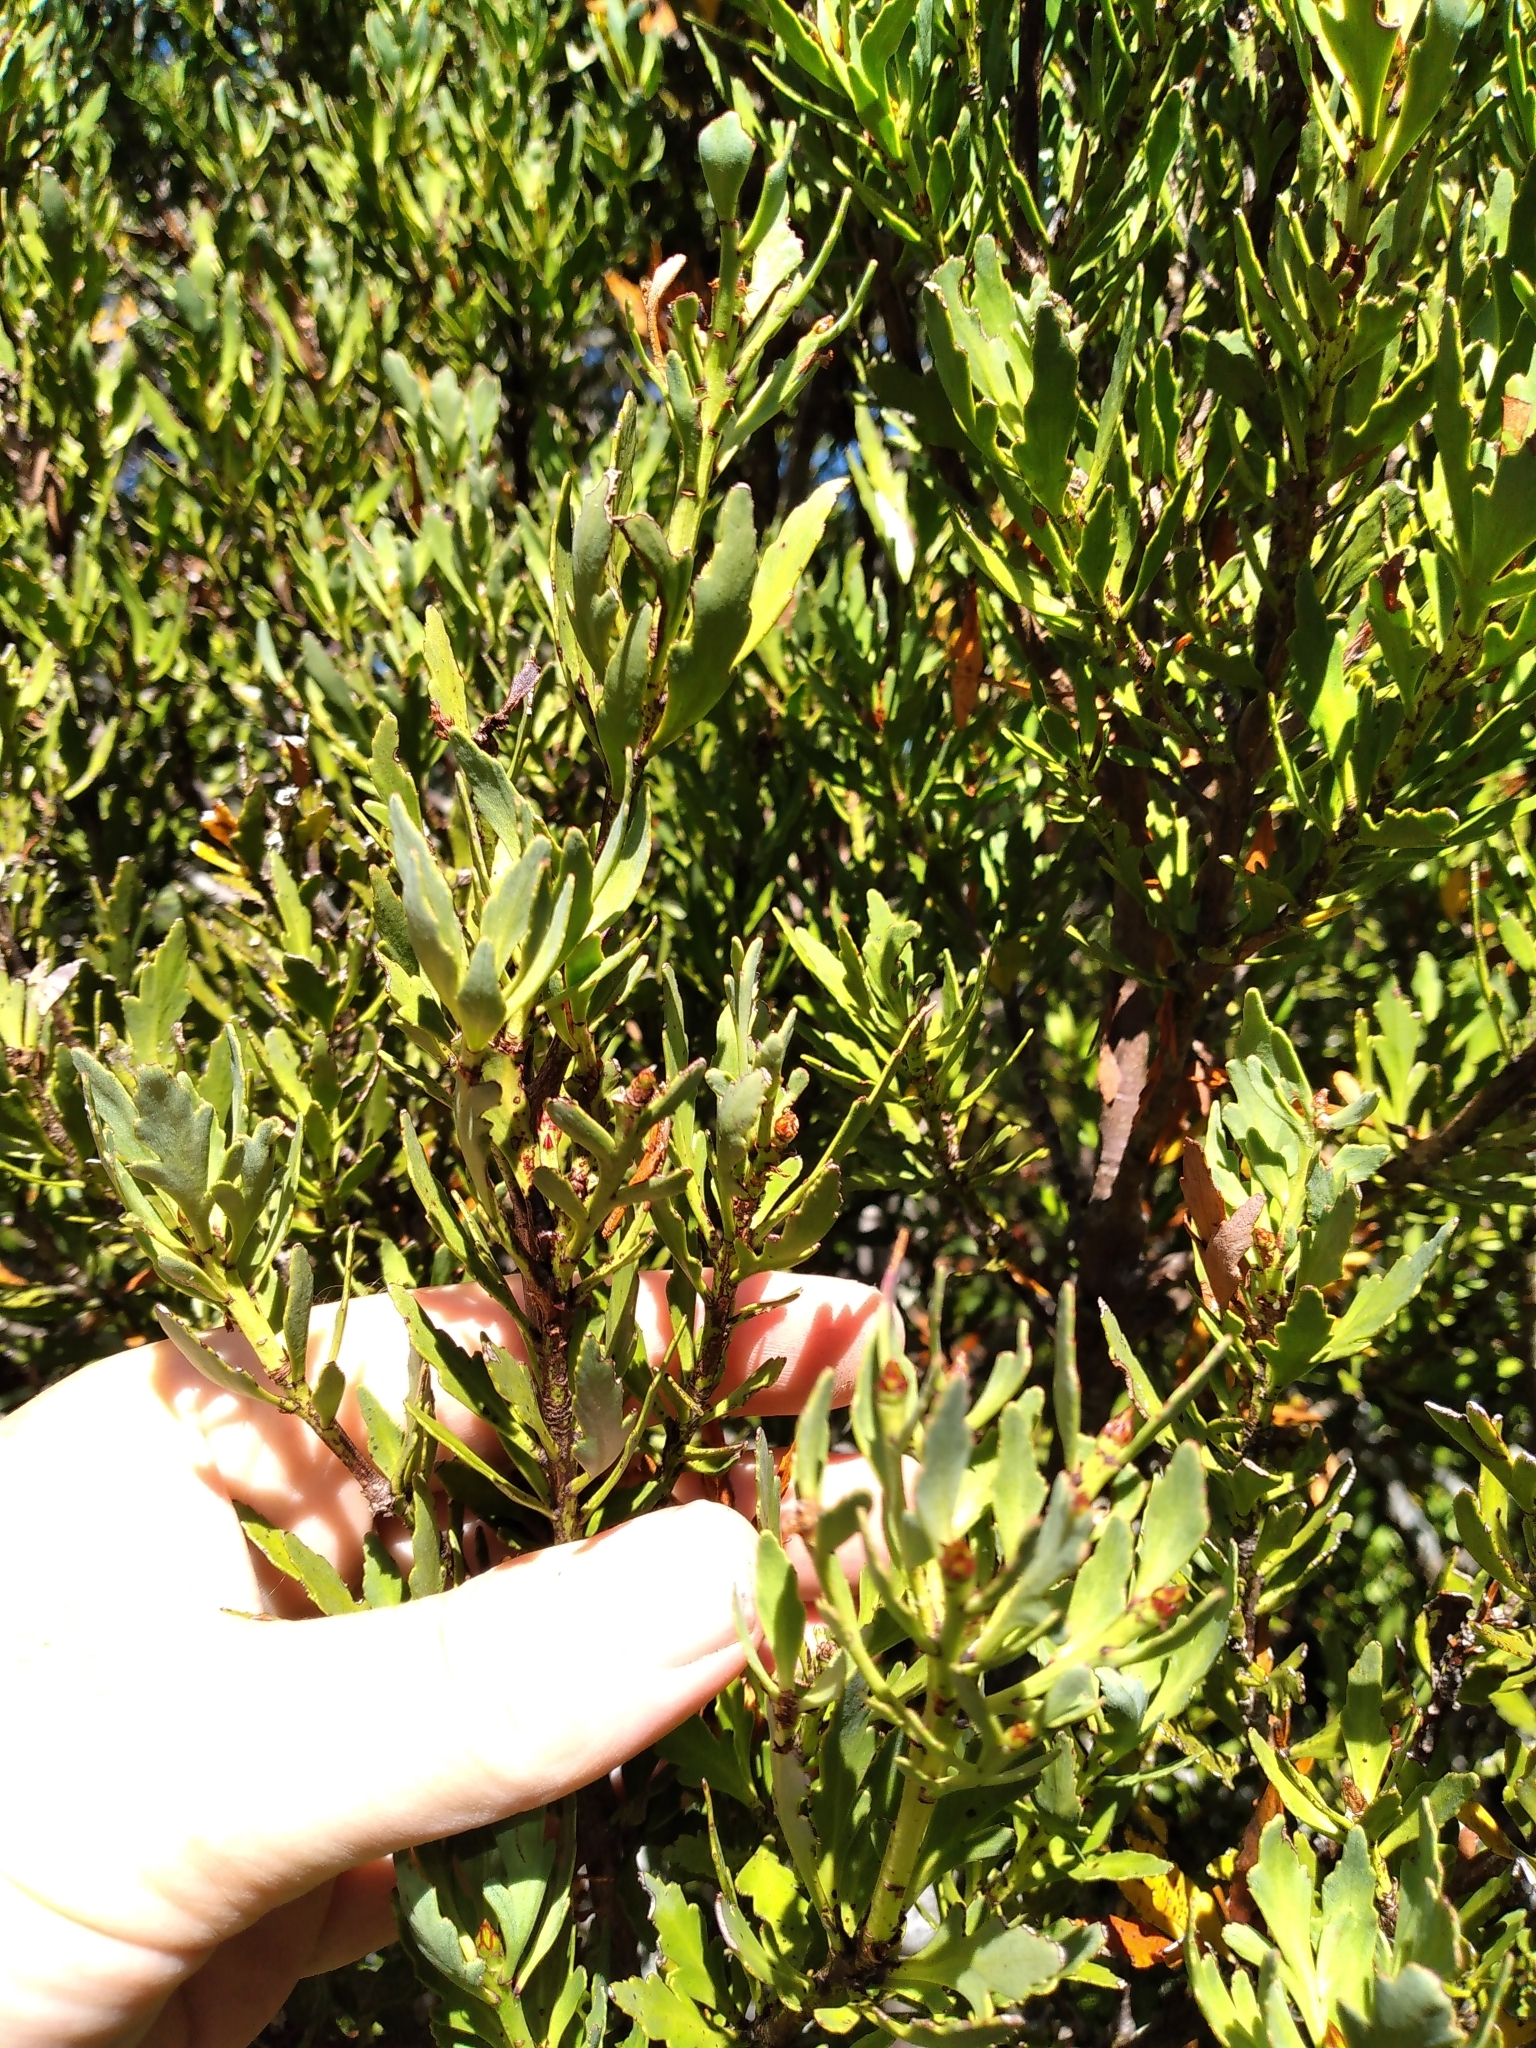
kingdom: Plantae
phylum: Tracheophyta
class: Pinopsida
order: Pinales
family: Phyllocladaceae
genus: Phyllocladus
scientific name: Phyllocladus trichomanoides
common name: Celery pine
